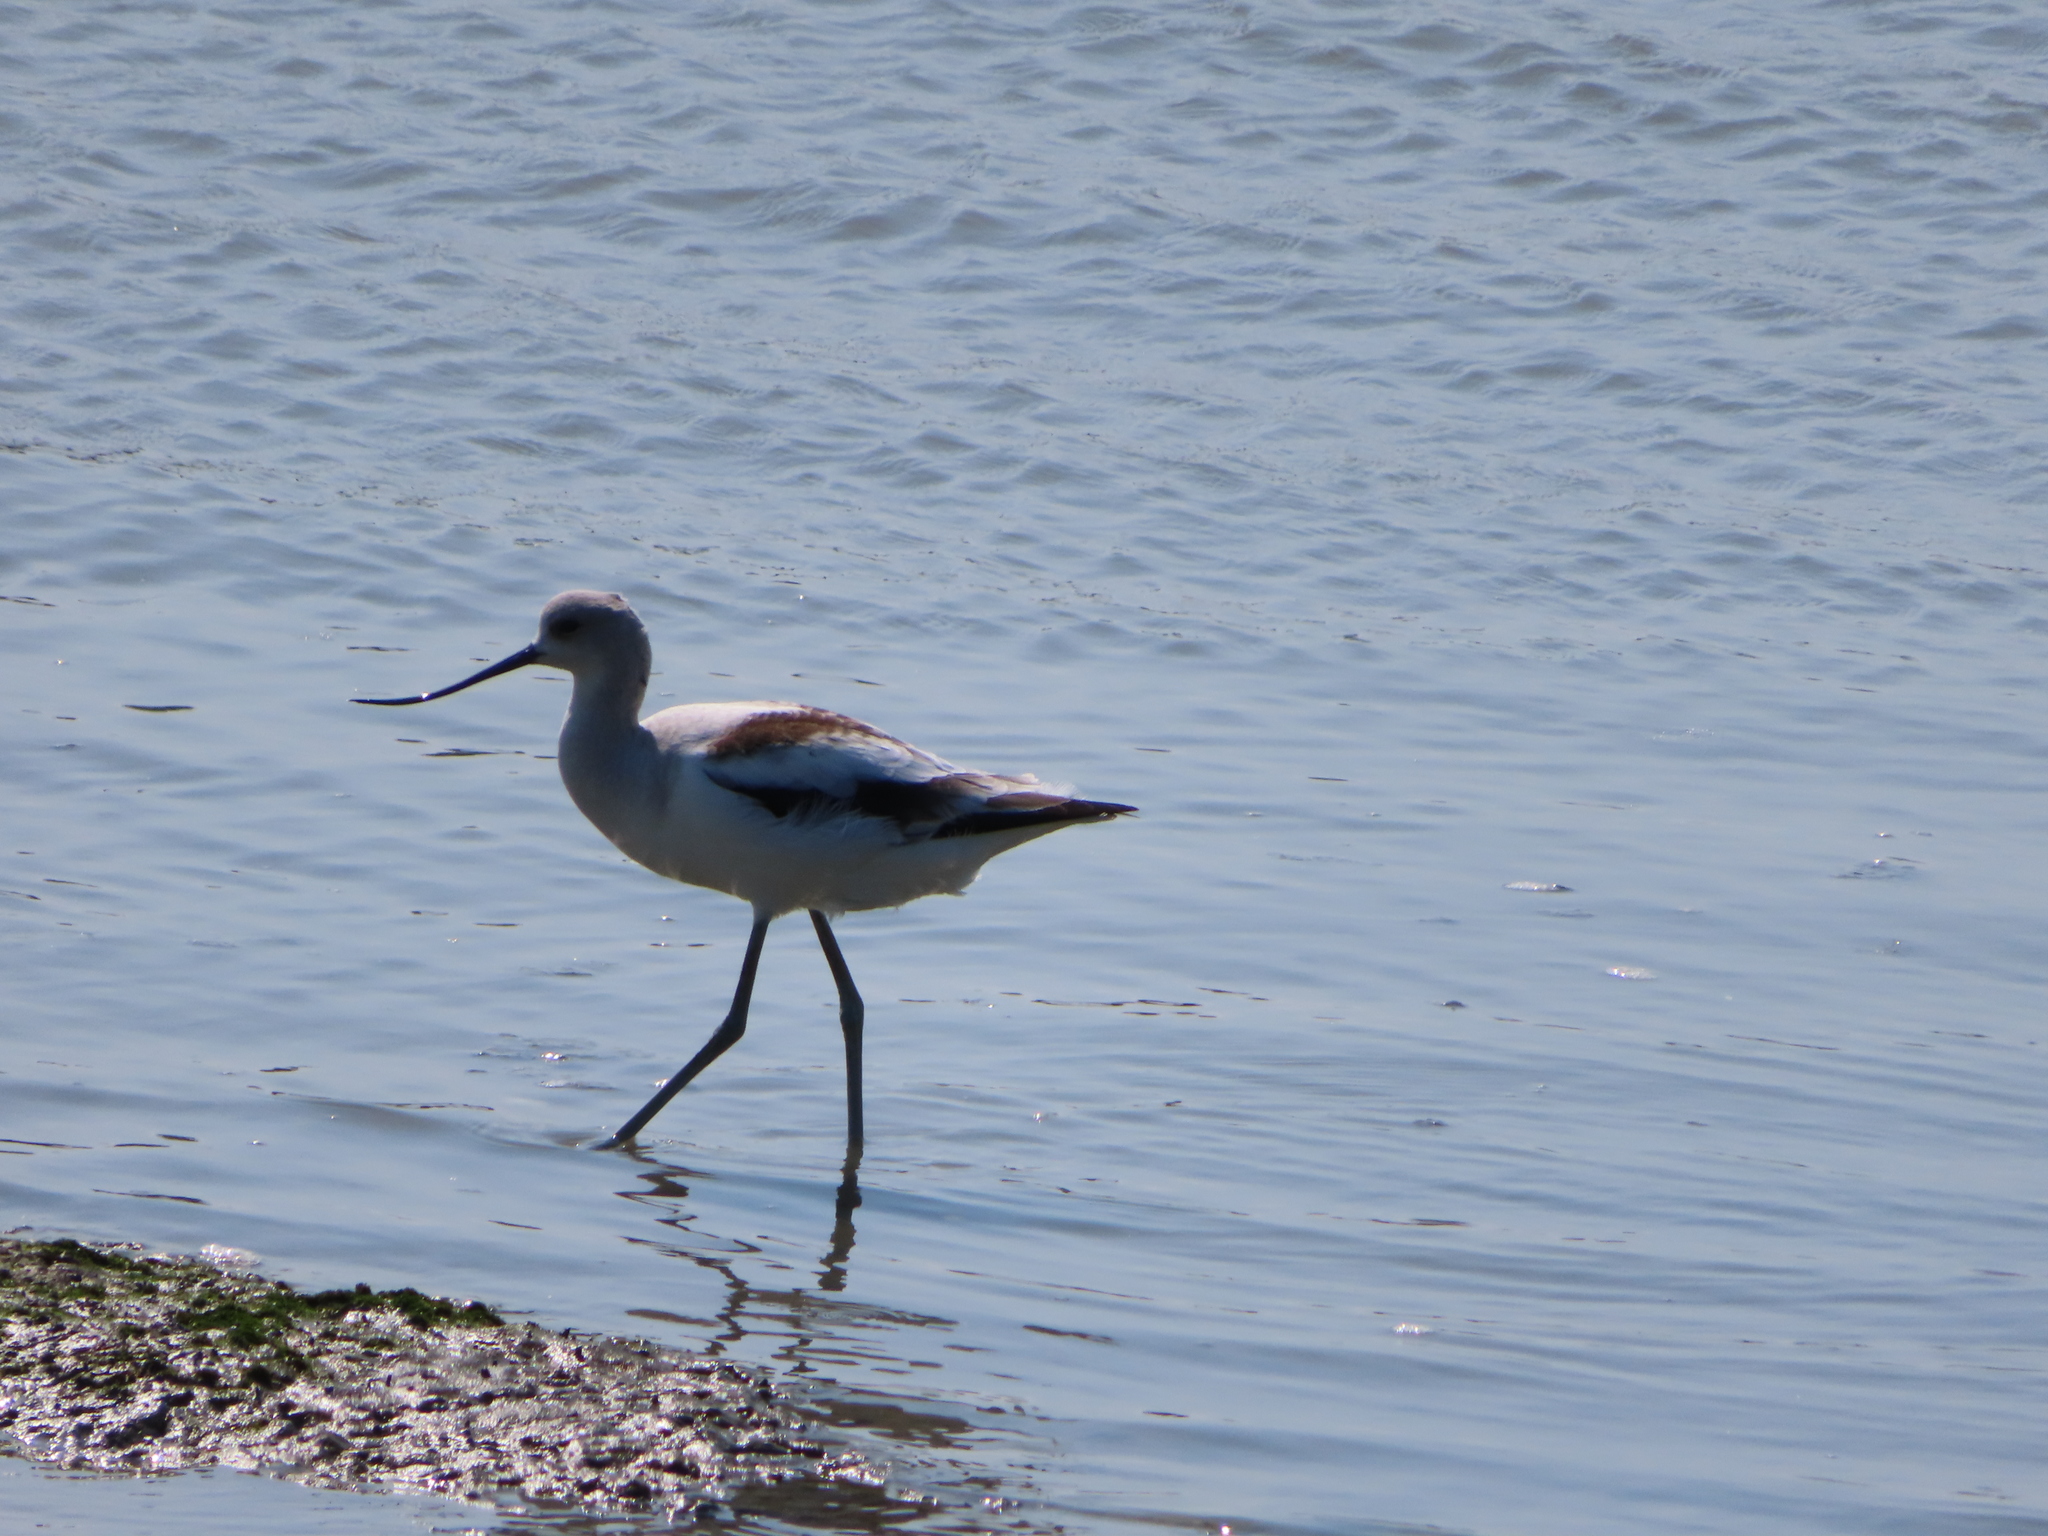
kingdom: Animalia
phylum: Chordata
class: Aves
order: Charadriiformes
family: Recurvirostridae
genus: Recurvirostra
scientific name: Recurvirostra americana
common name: American avocet
